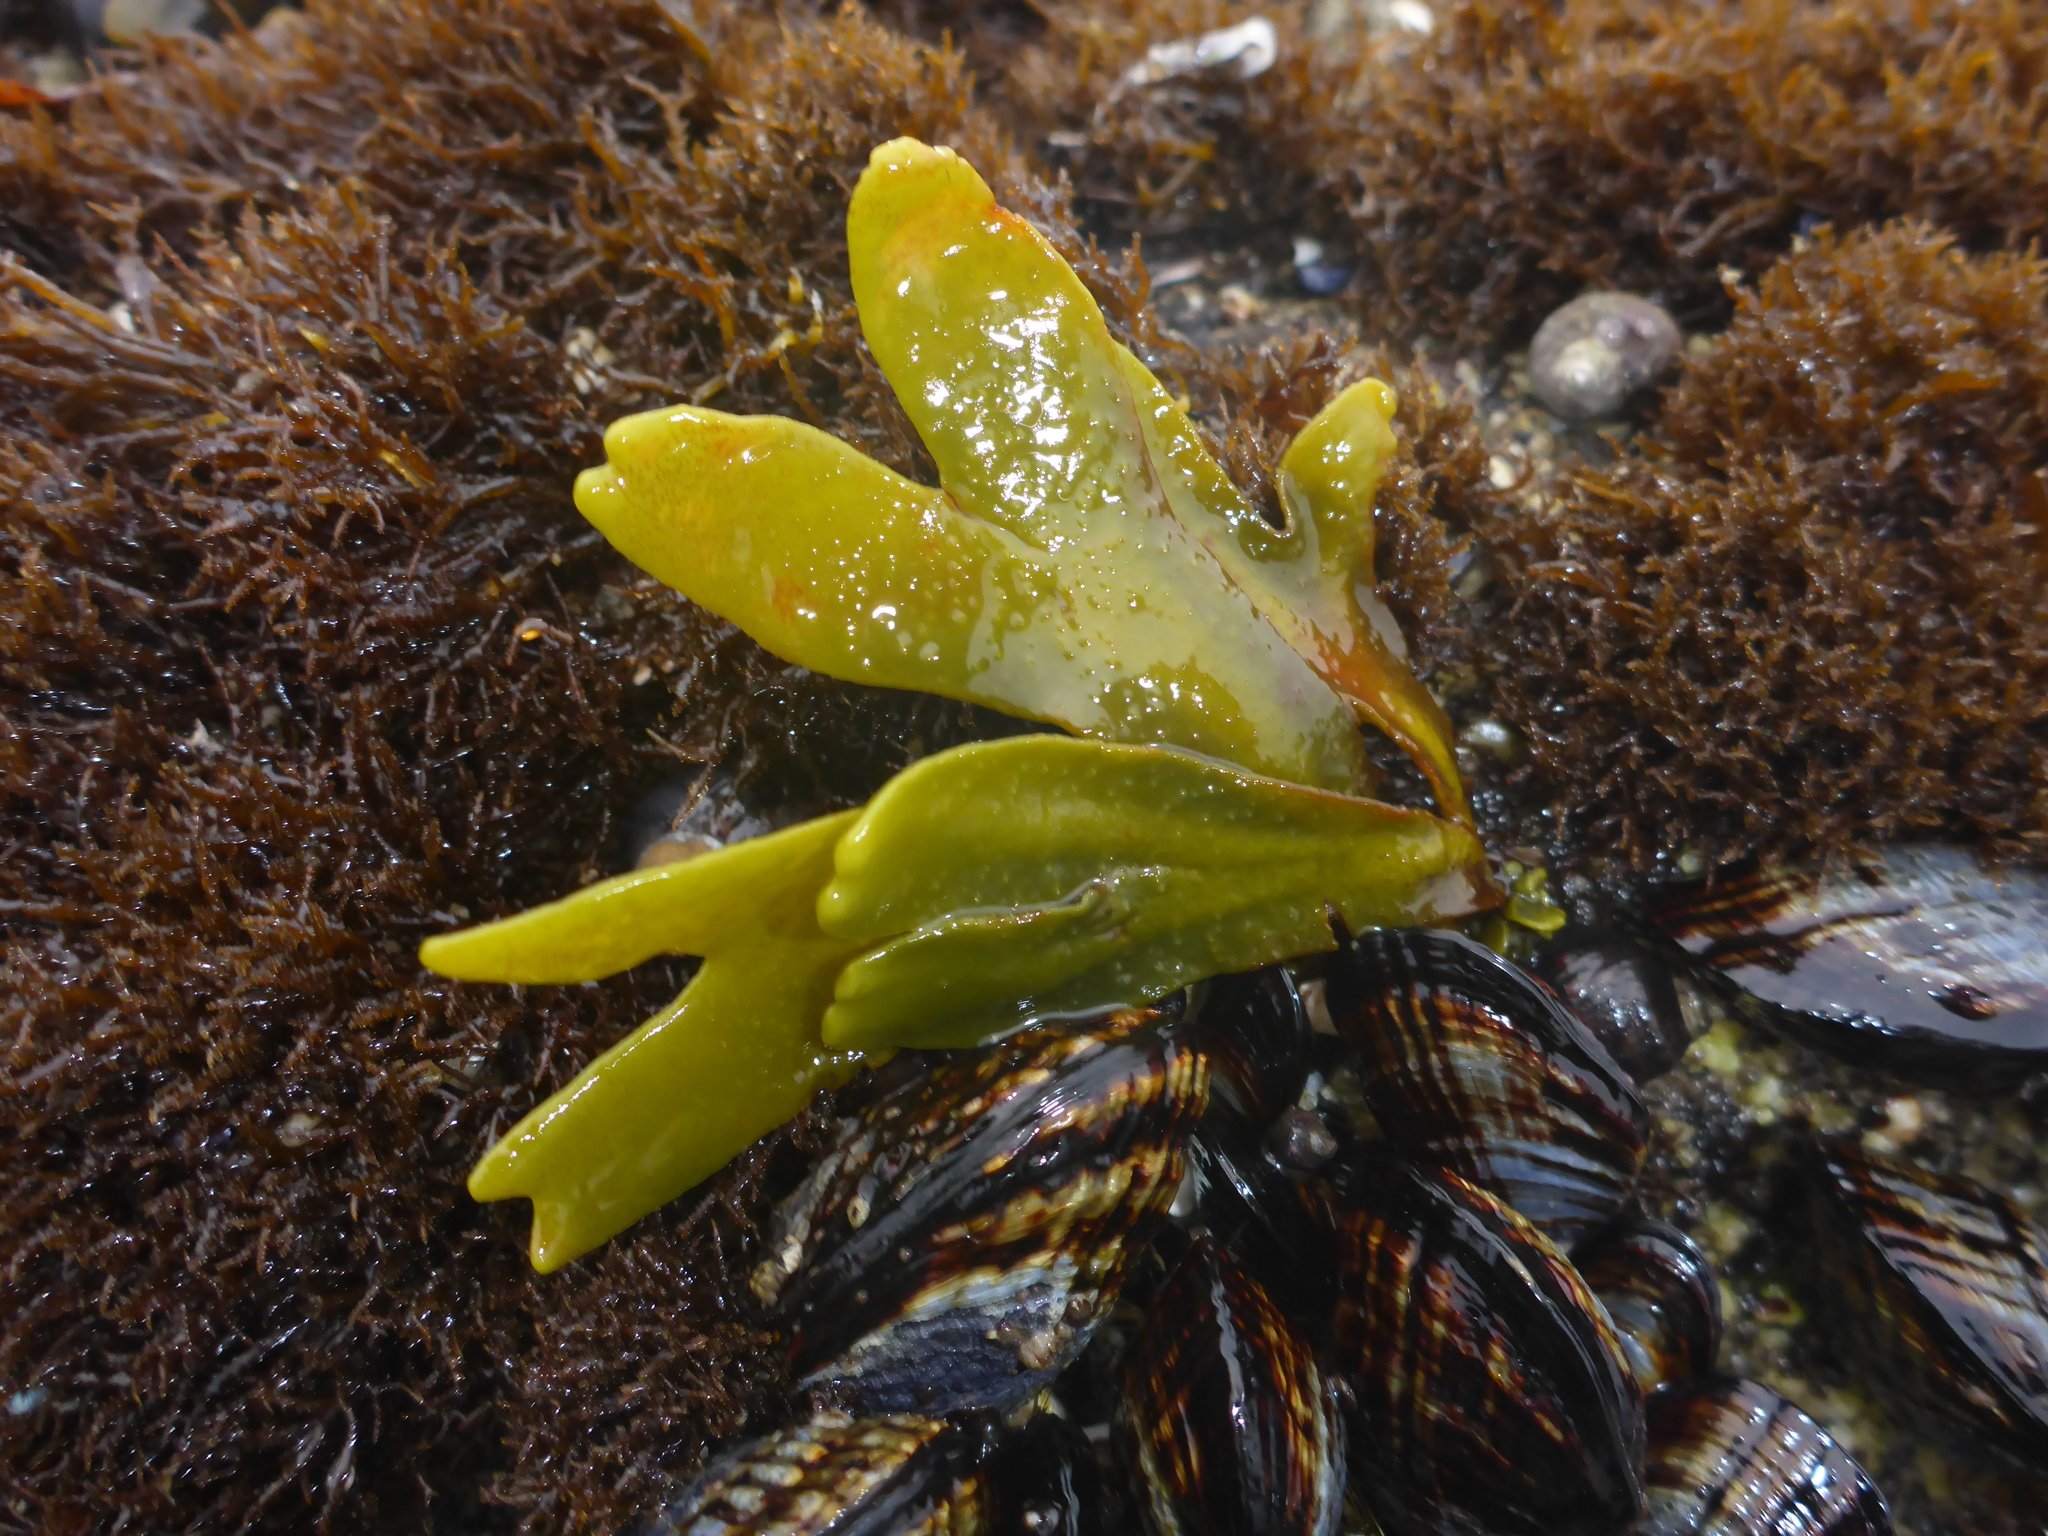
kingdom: Chromista
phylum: Ochrophyta
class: Phaeophyceae
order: Fucales
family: Fucaceae
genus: Fucus
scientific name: Fucus distichus
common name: Rockweed
